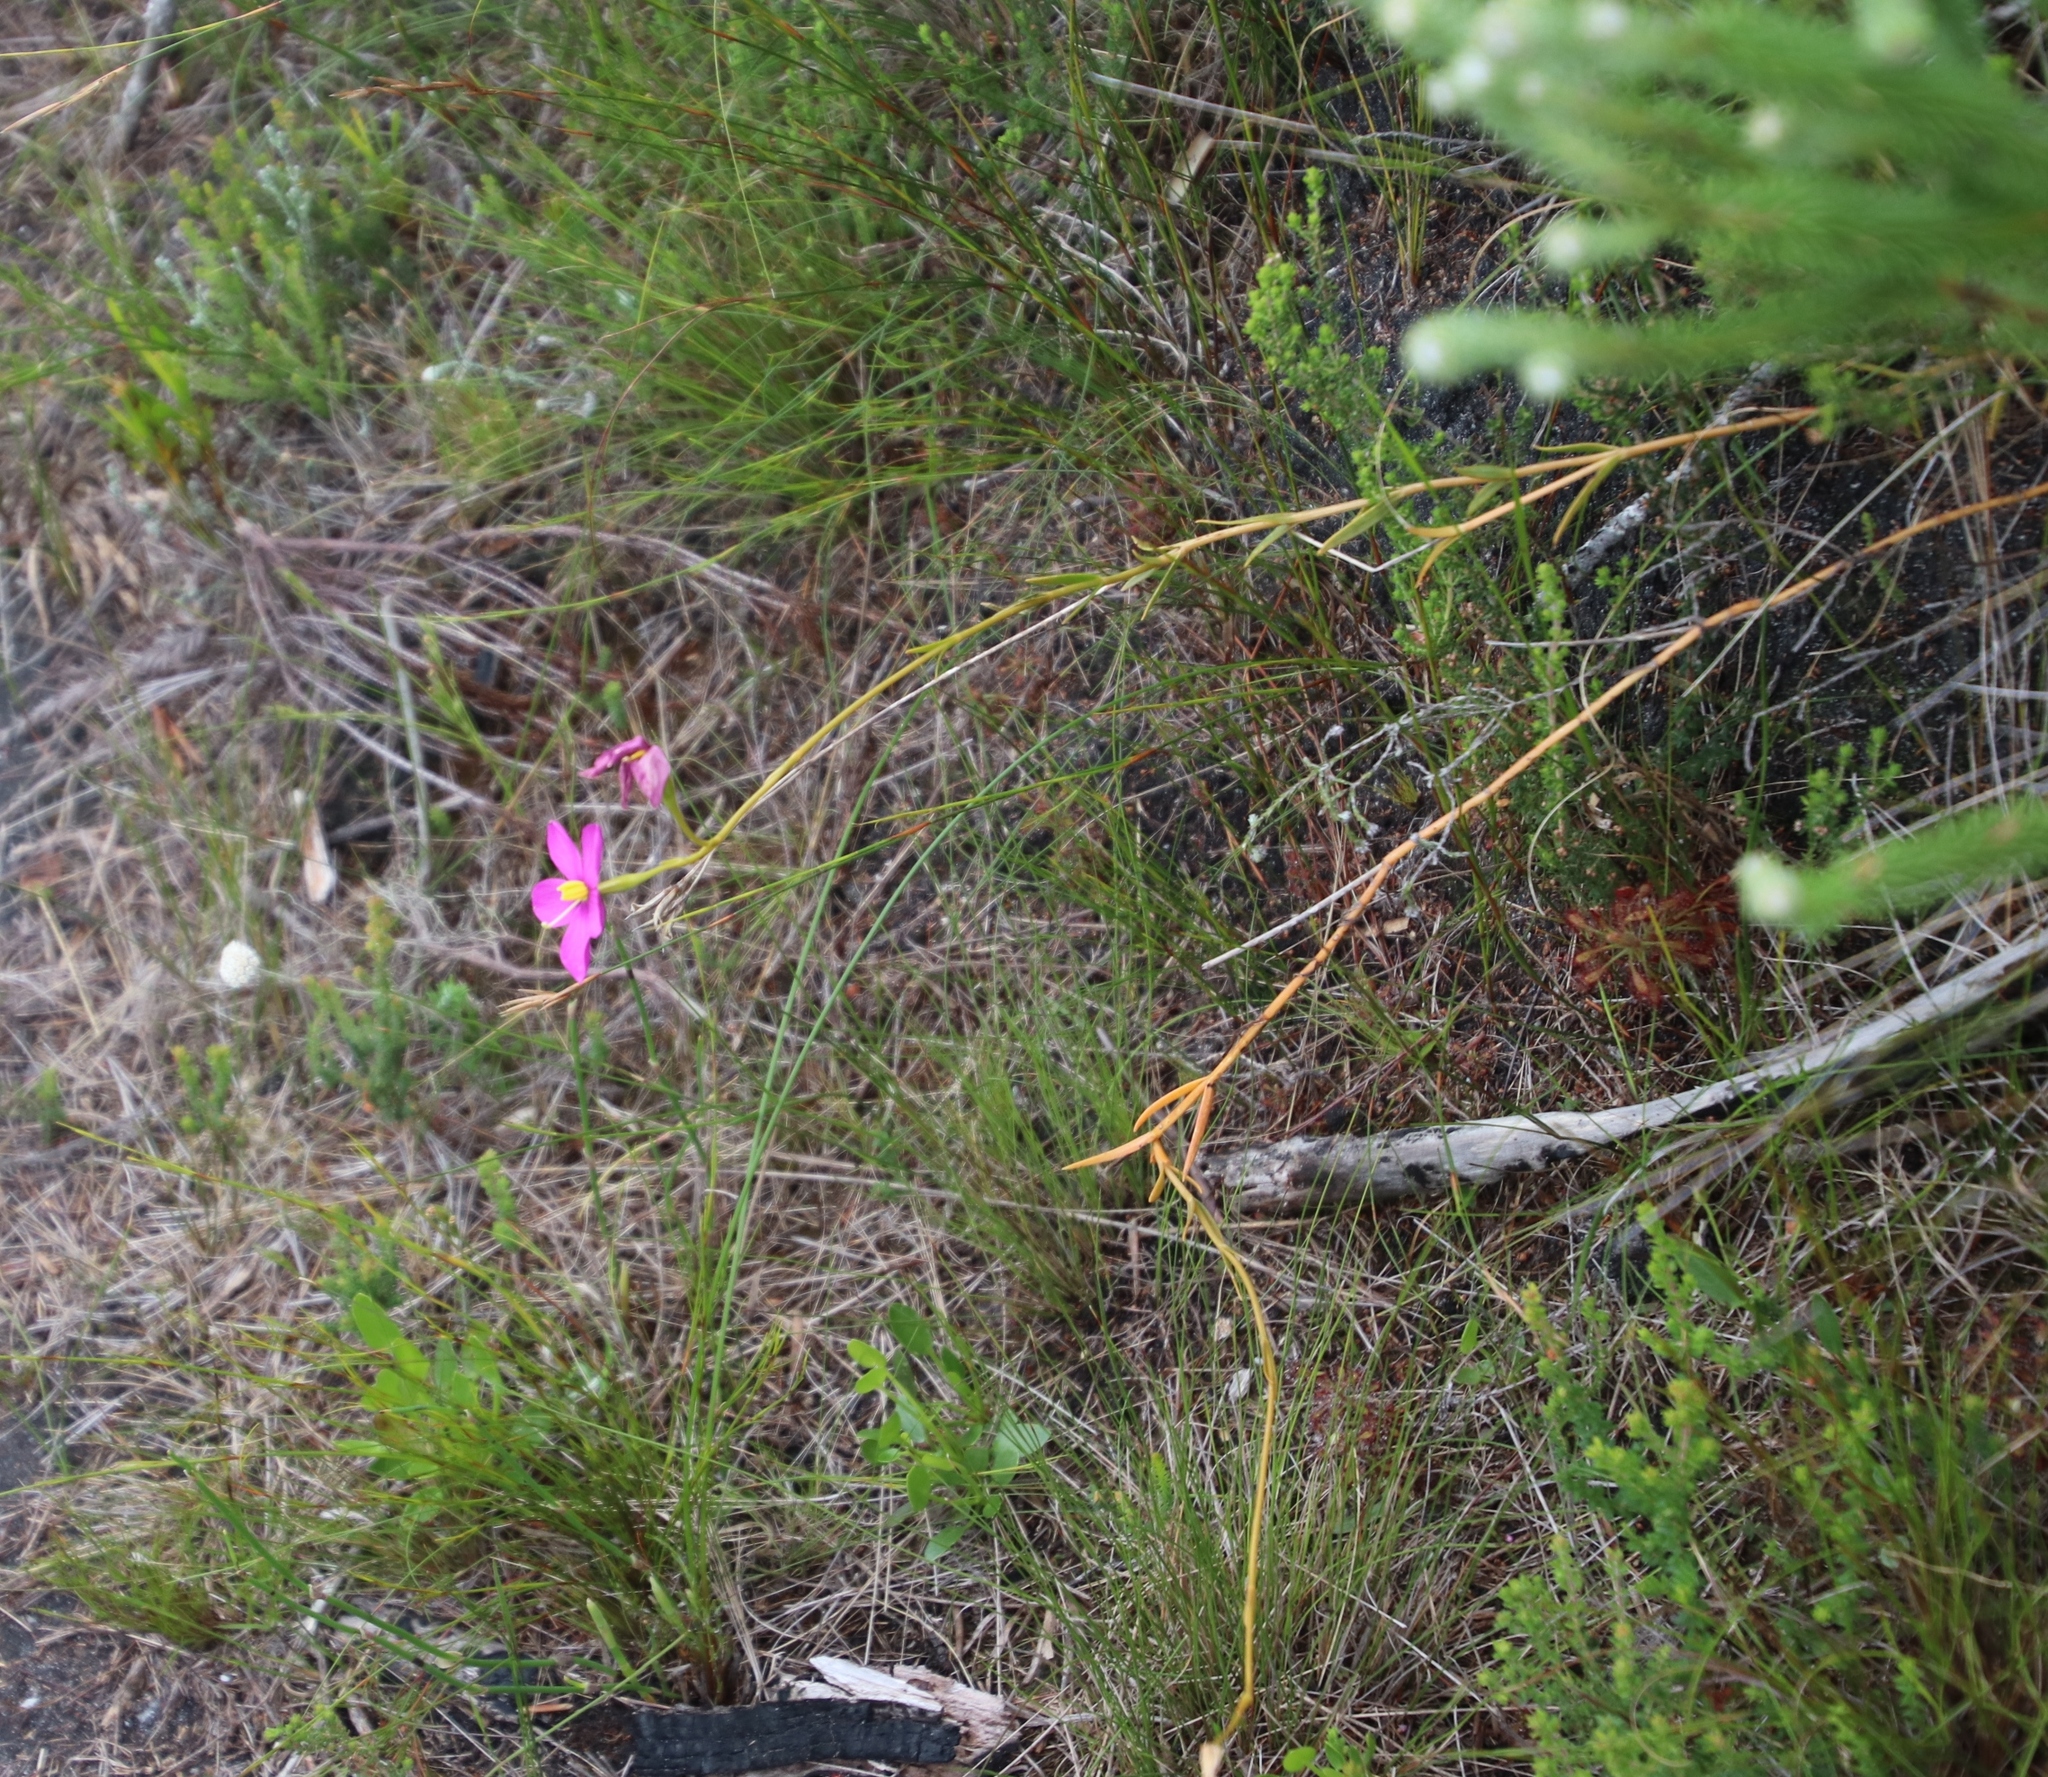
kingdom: Plantae
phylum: Tracheophyta
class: Magnoliopsida
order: Gentianales
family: Gentianaceae
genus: Chironia
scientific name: Chironia jasminoides
